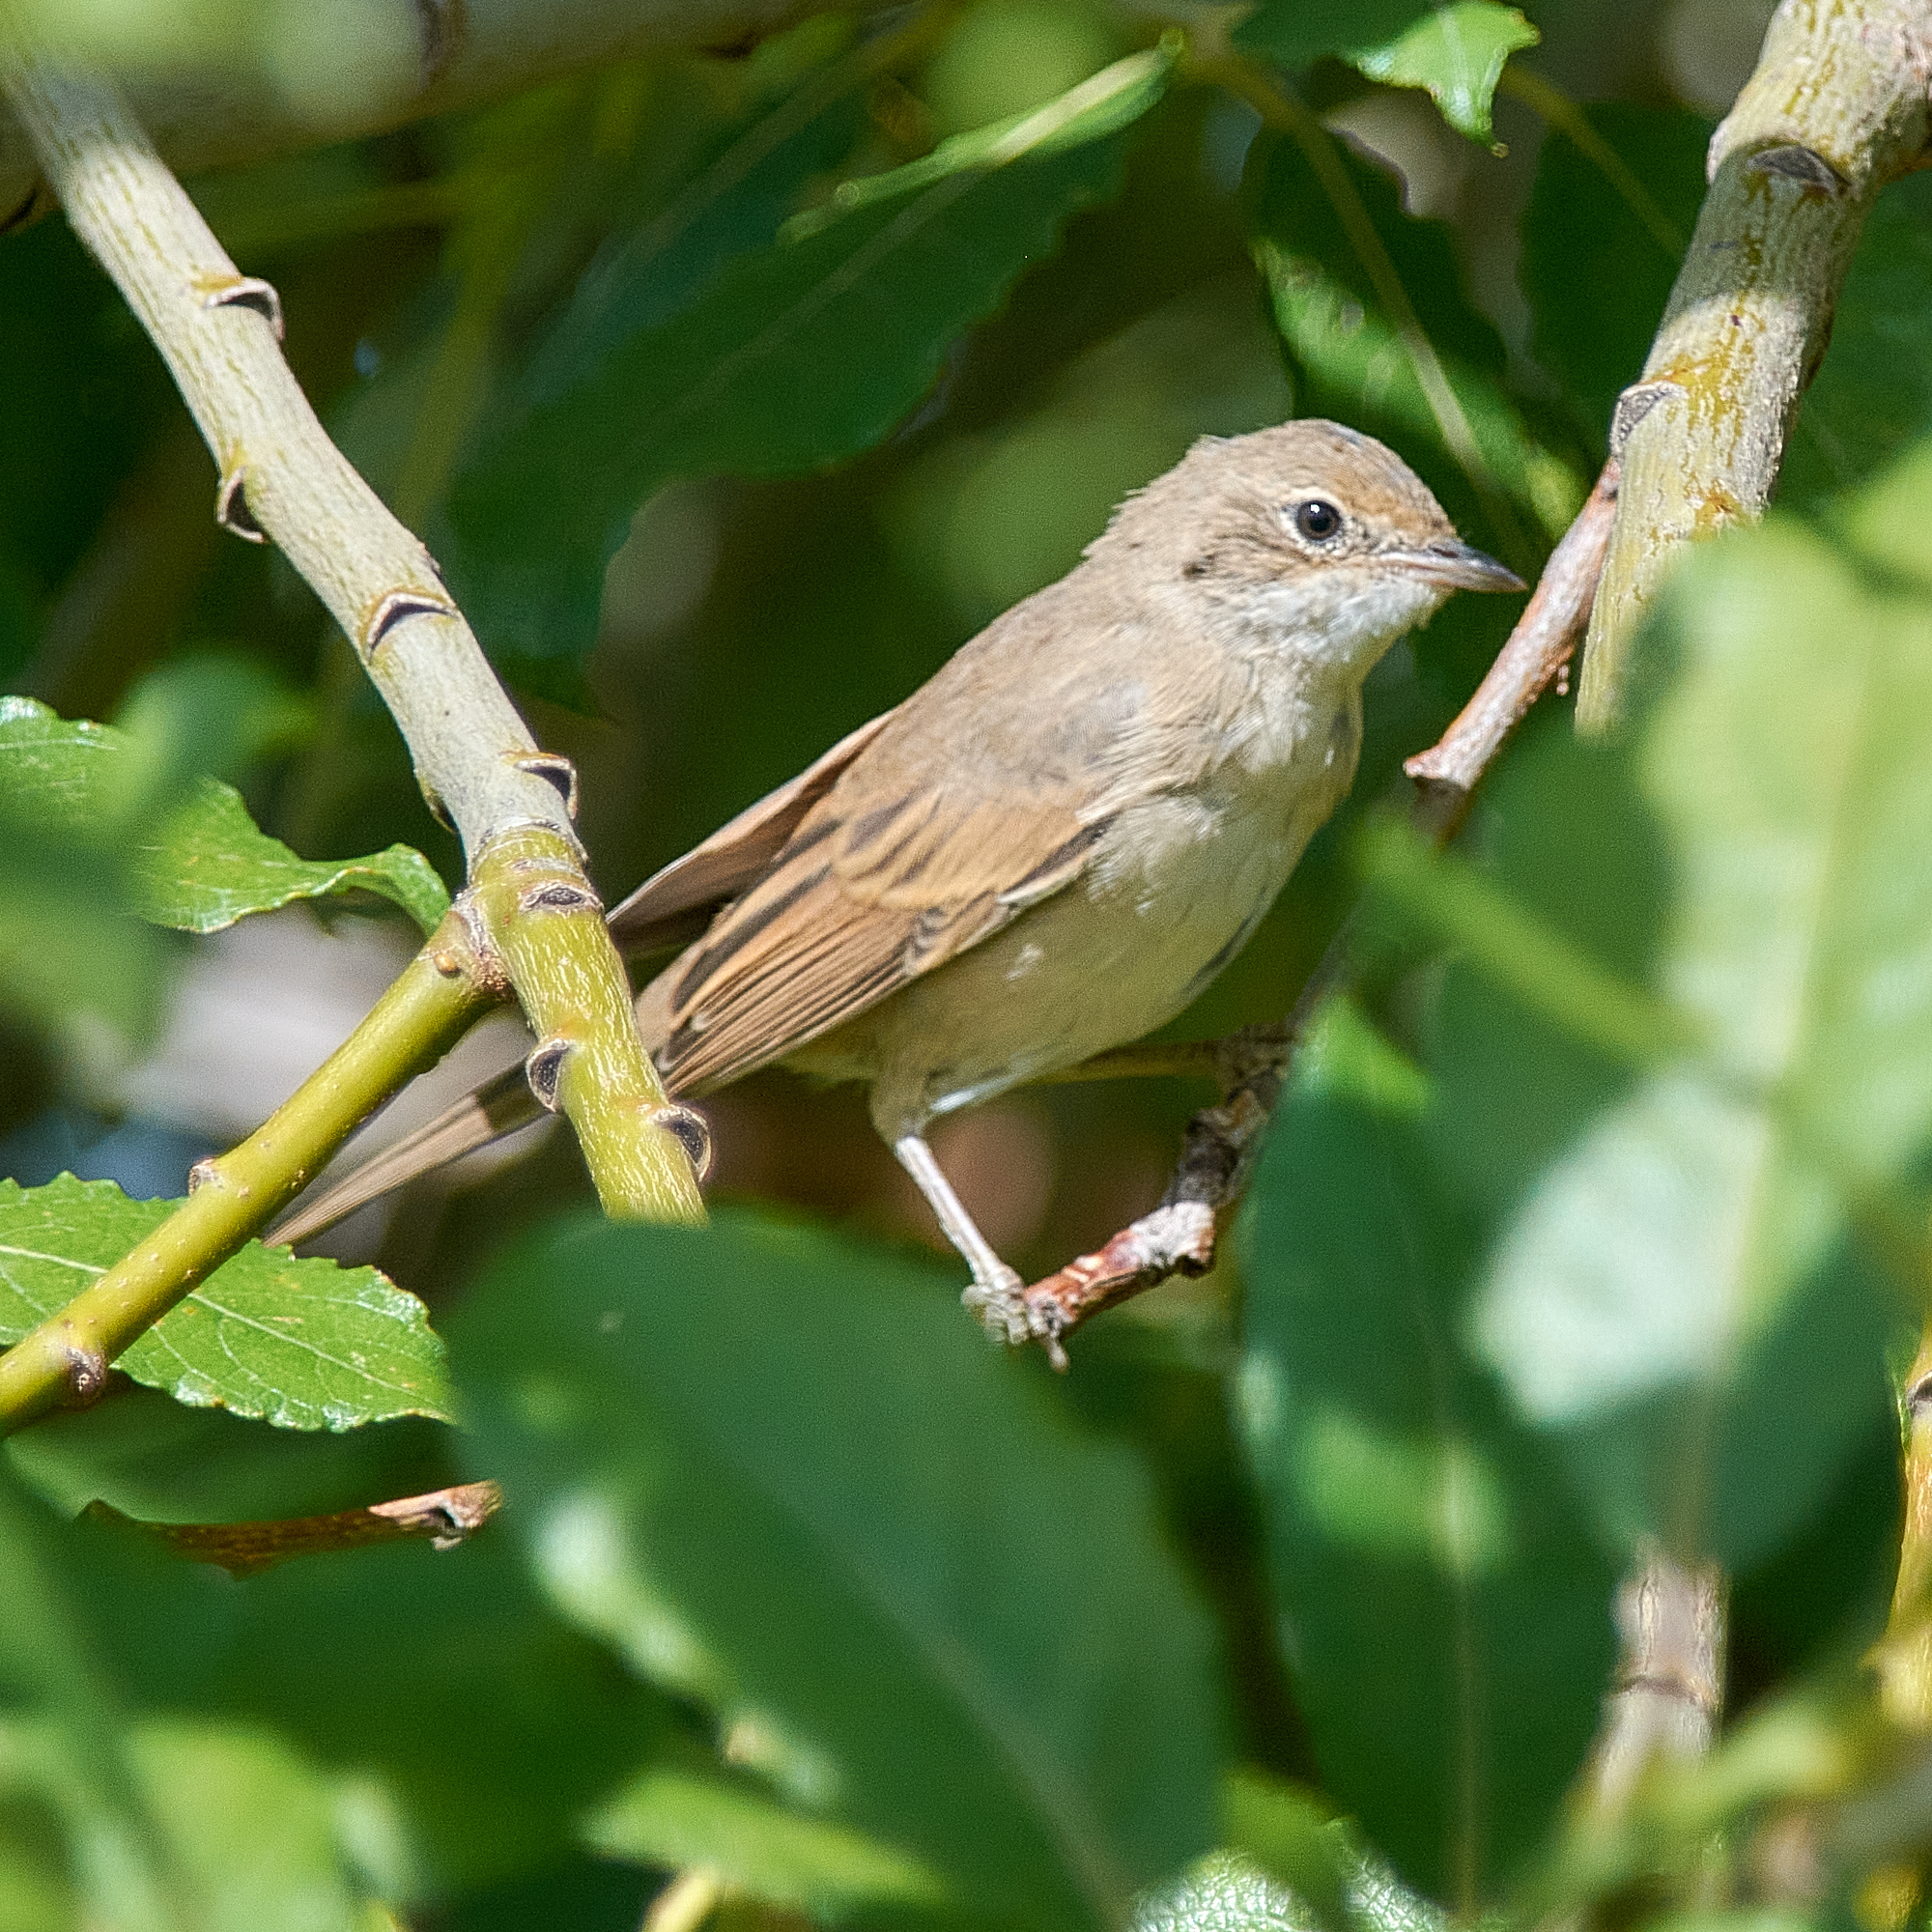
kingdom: Animalia
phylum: Chordata
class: Aves
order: Passeriformes
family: Sylviidae
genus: Sylvia
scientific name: Sylvia communis
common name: Common whitethroat
